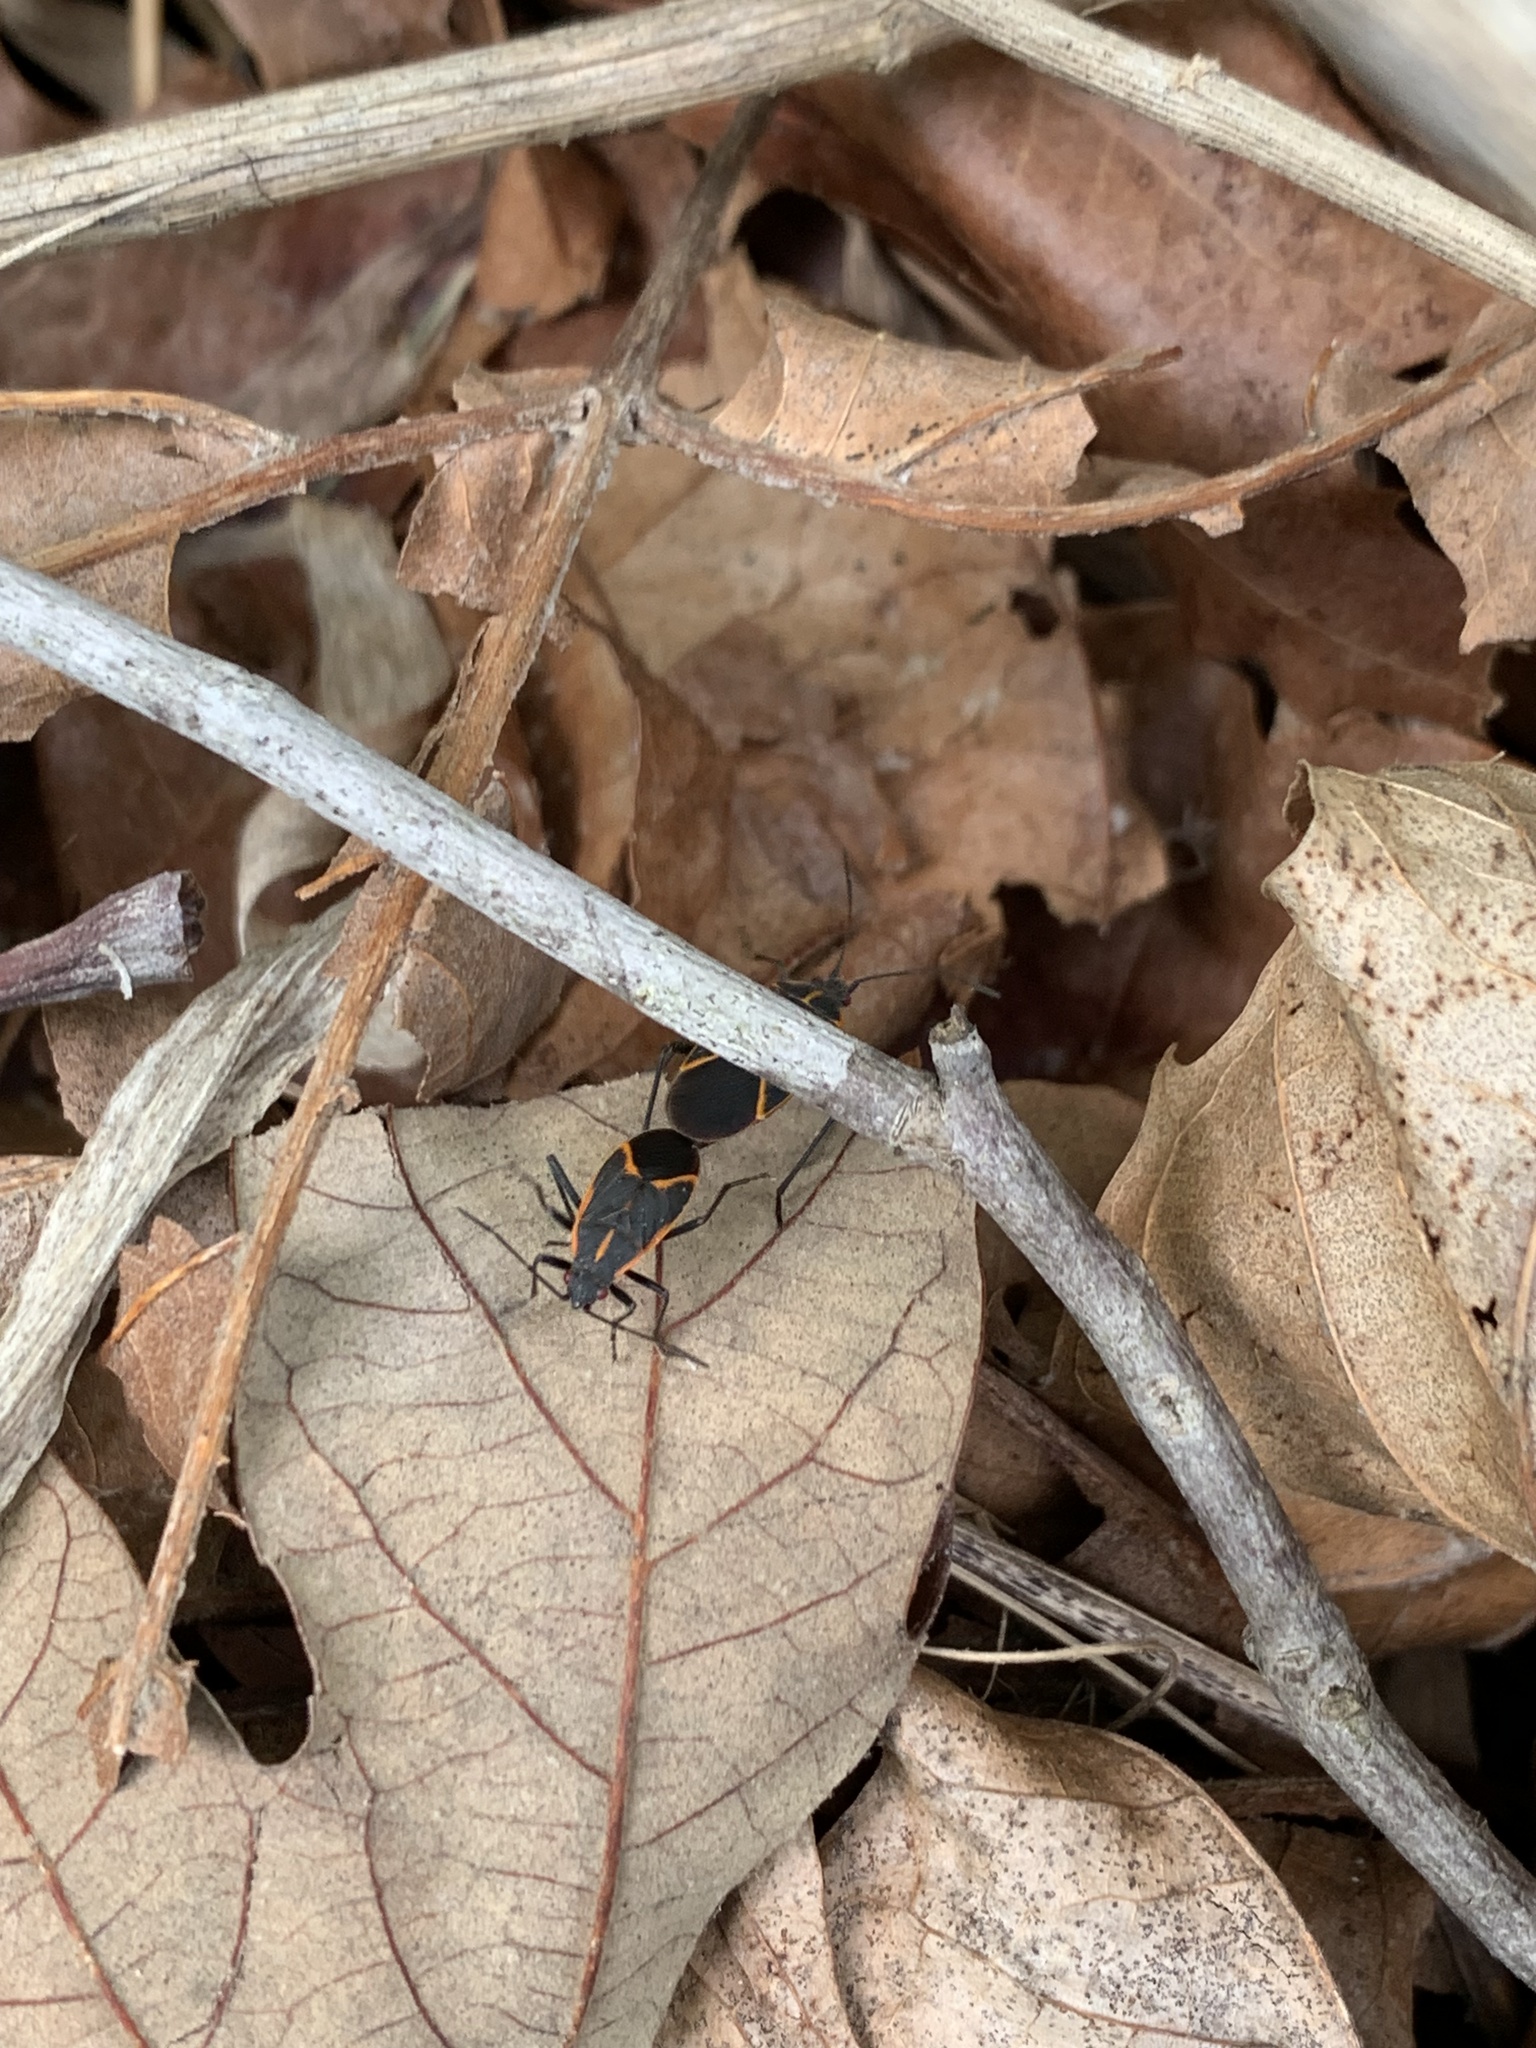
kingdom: Animalia
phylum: Arthropoda
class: Insecta
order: Hemiptera
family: Rhopalidae
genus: Boisea
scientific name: Boisea trivittata
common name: Boxelder bug
